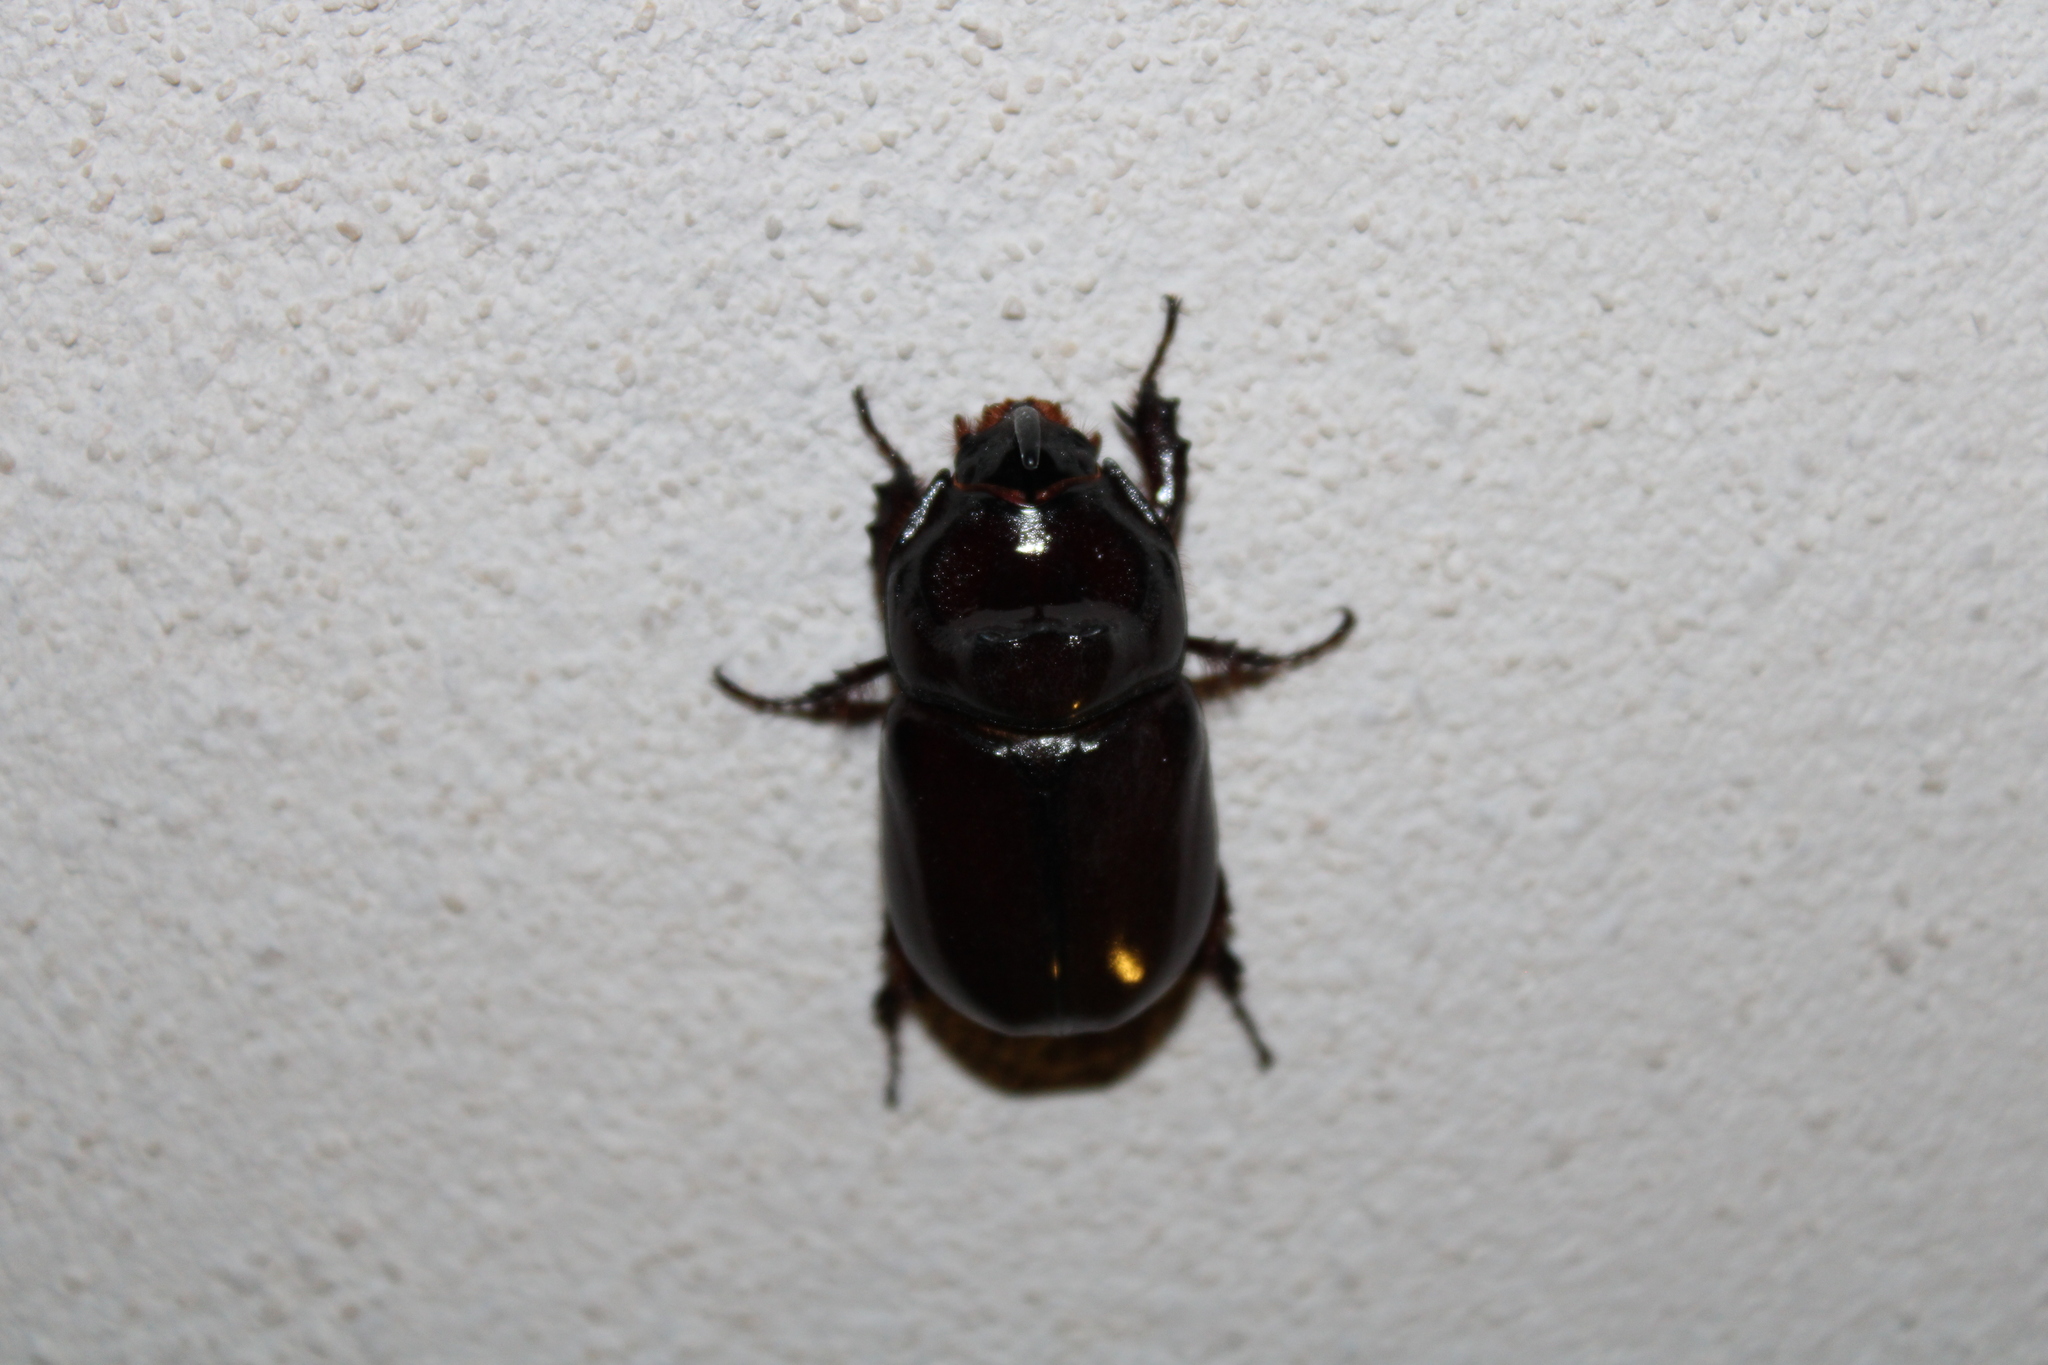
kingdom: Animalia
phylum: Arthropoda
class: Insecta
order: Coleoptera
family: Scarabaeidae
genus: Oryctes
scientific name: Oryctes nasicornis
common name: European rhinoceros beetle
